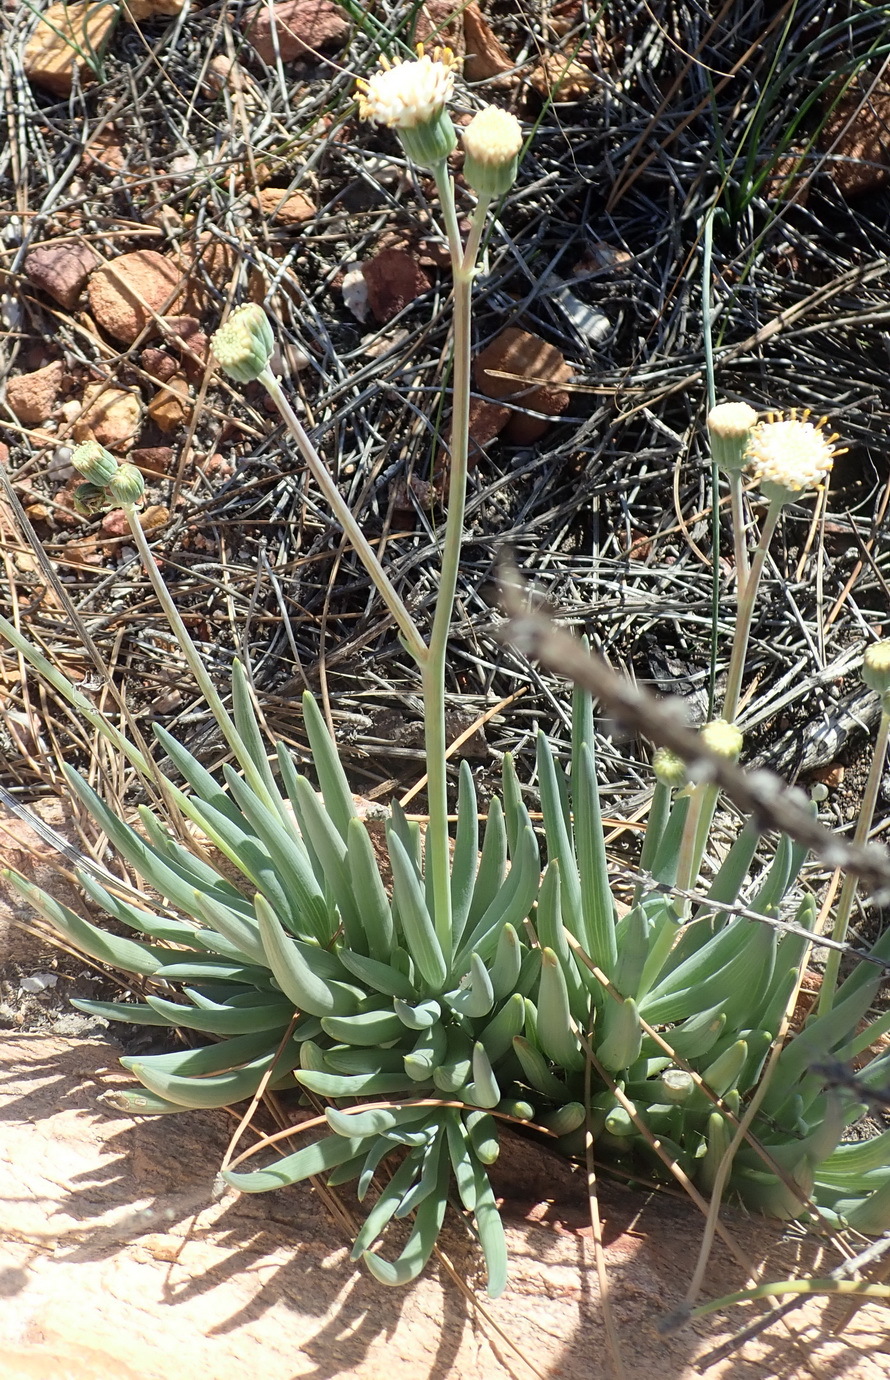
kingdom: Plantae
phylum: Tracheophyta
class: Magnoliopsida
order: Asterales
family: Asteraceae
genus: Curio
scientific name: Curio talinoides
